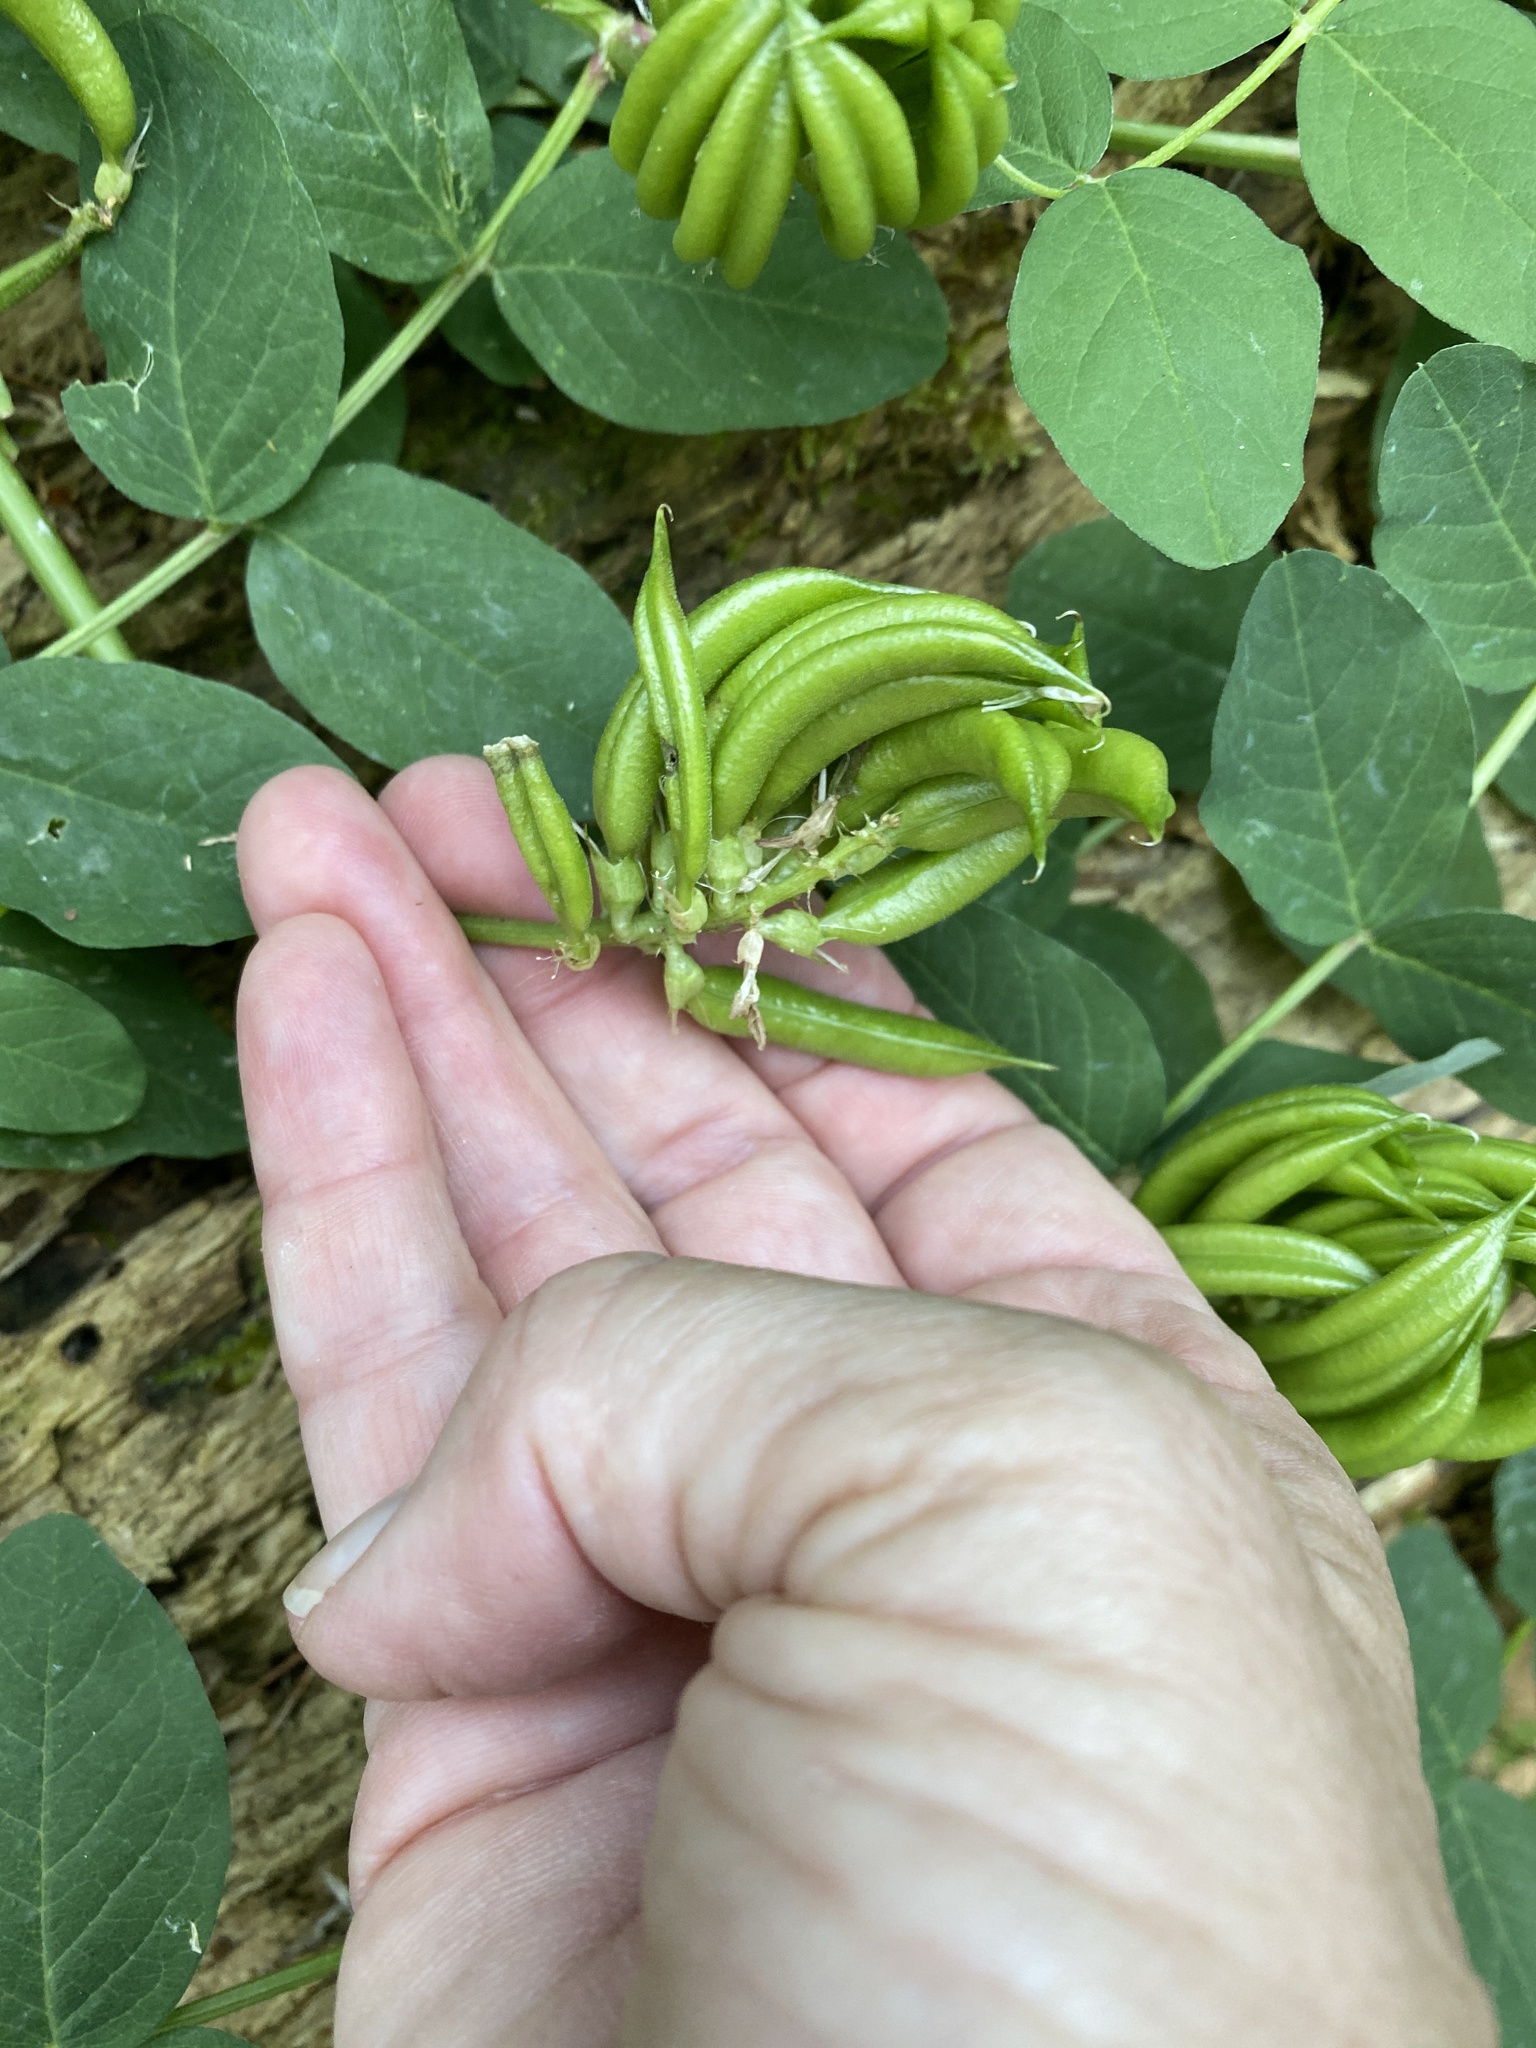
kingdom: Plantae
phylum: Tracheophyta
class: Magnoliopsida
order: Fabales
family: Fabaceae
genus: Astragalus
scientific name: Astragalus glycyphyllos
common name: Wild liquorice
